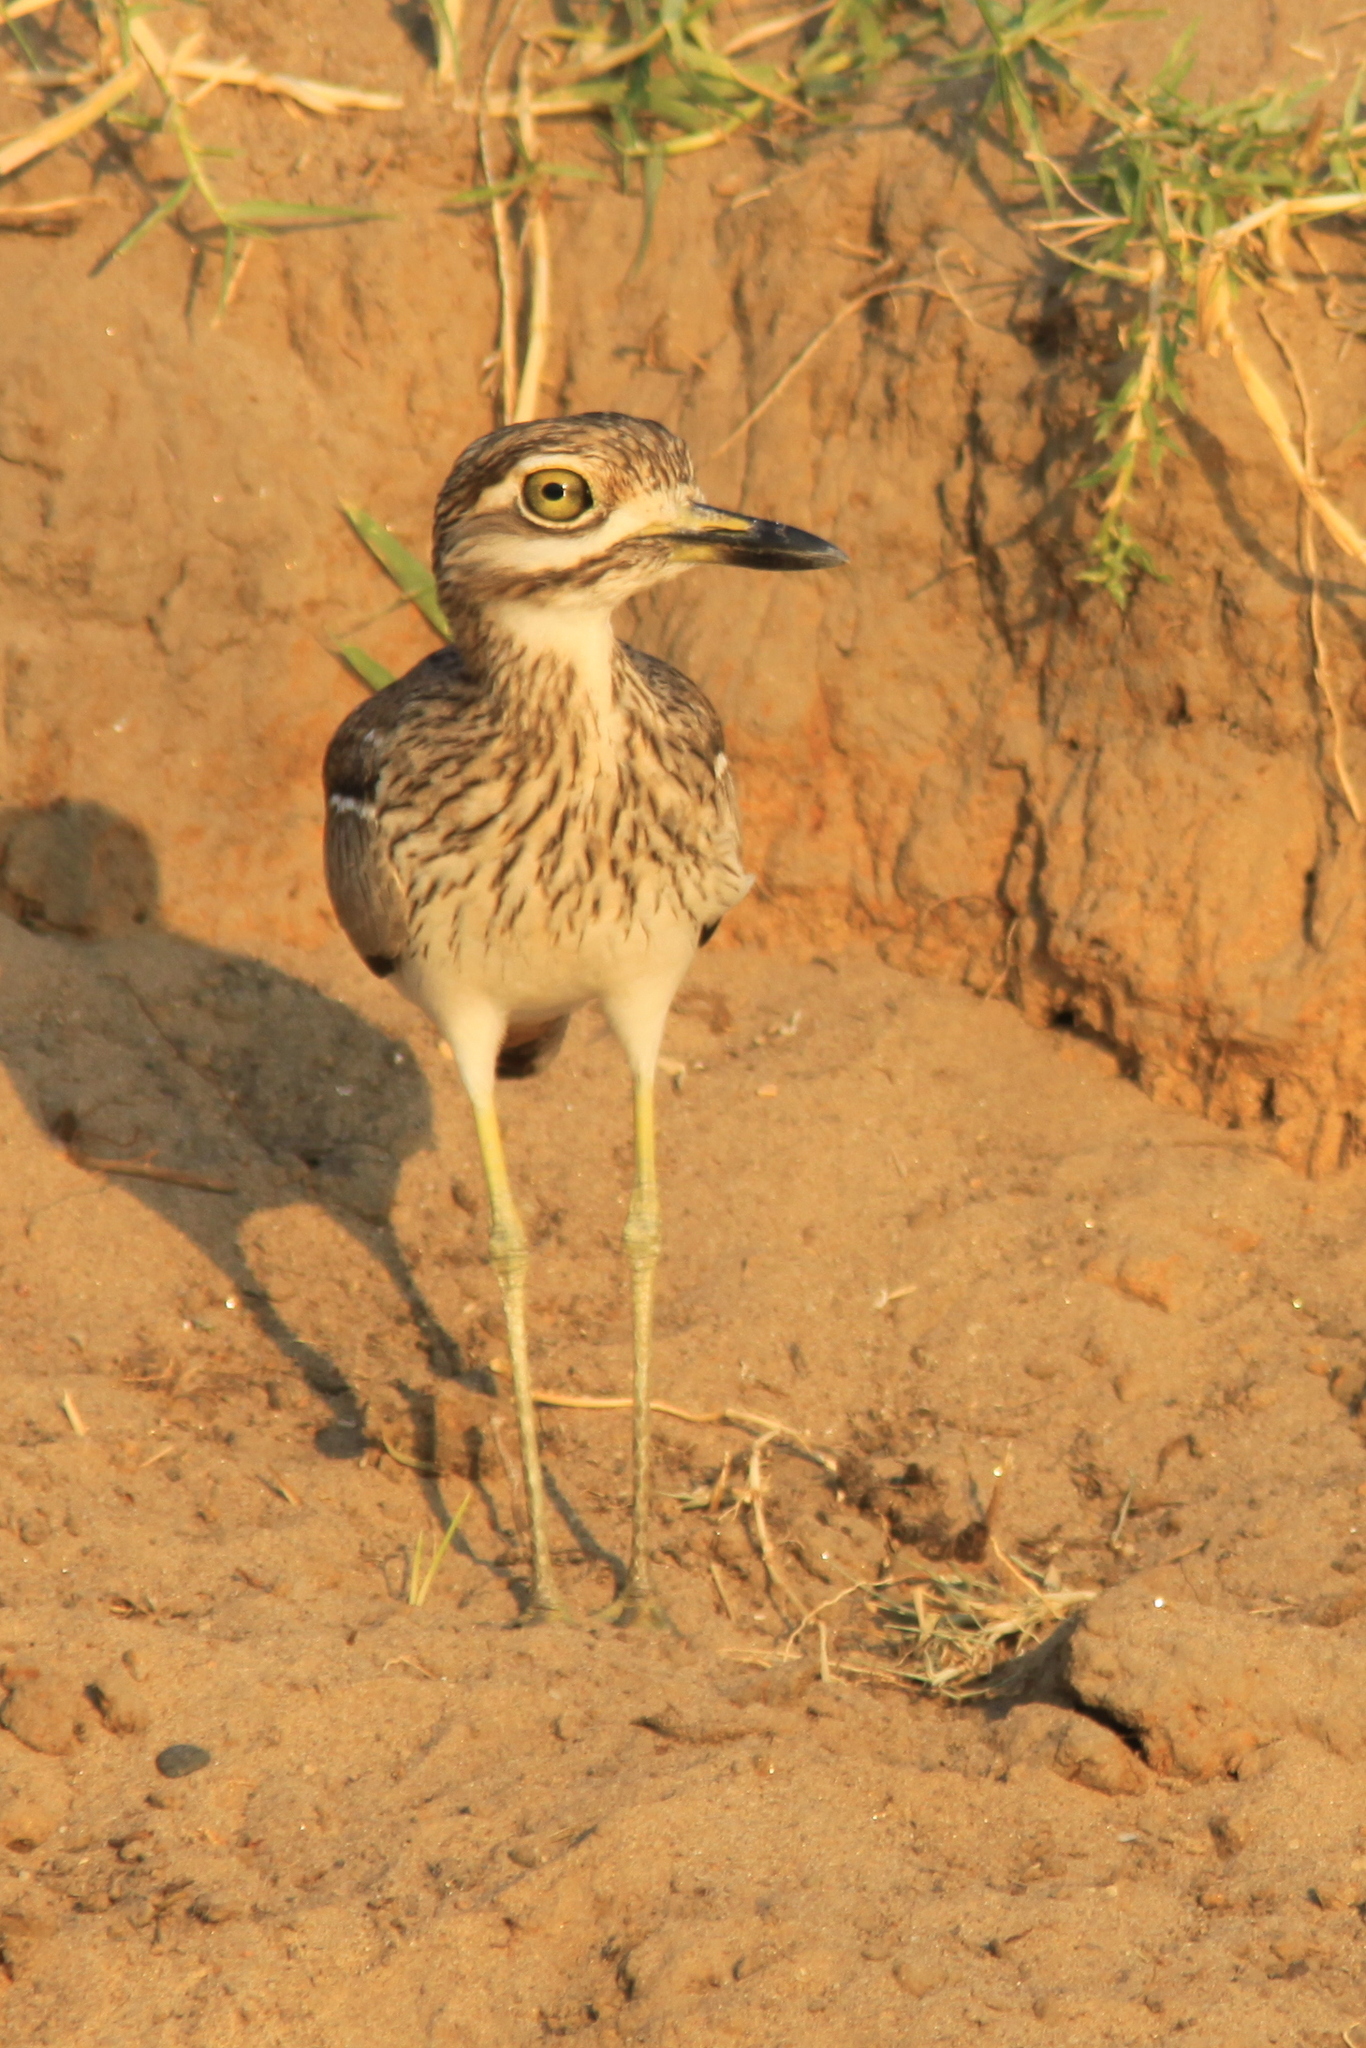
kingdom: Animalia
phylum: Chordata
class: Aves
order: Charadriiformes
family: Burhinidae
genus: Burhinus
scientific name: Burhinus vermiculatus
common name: Water thick-knee
